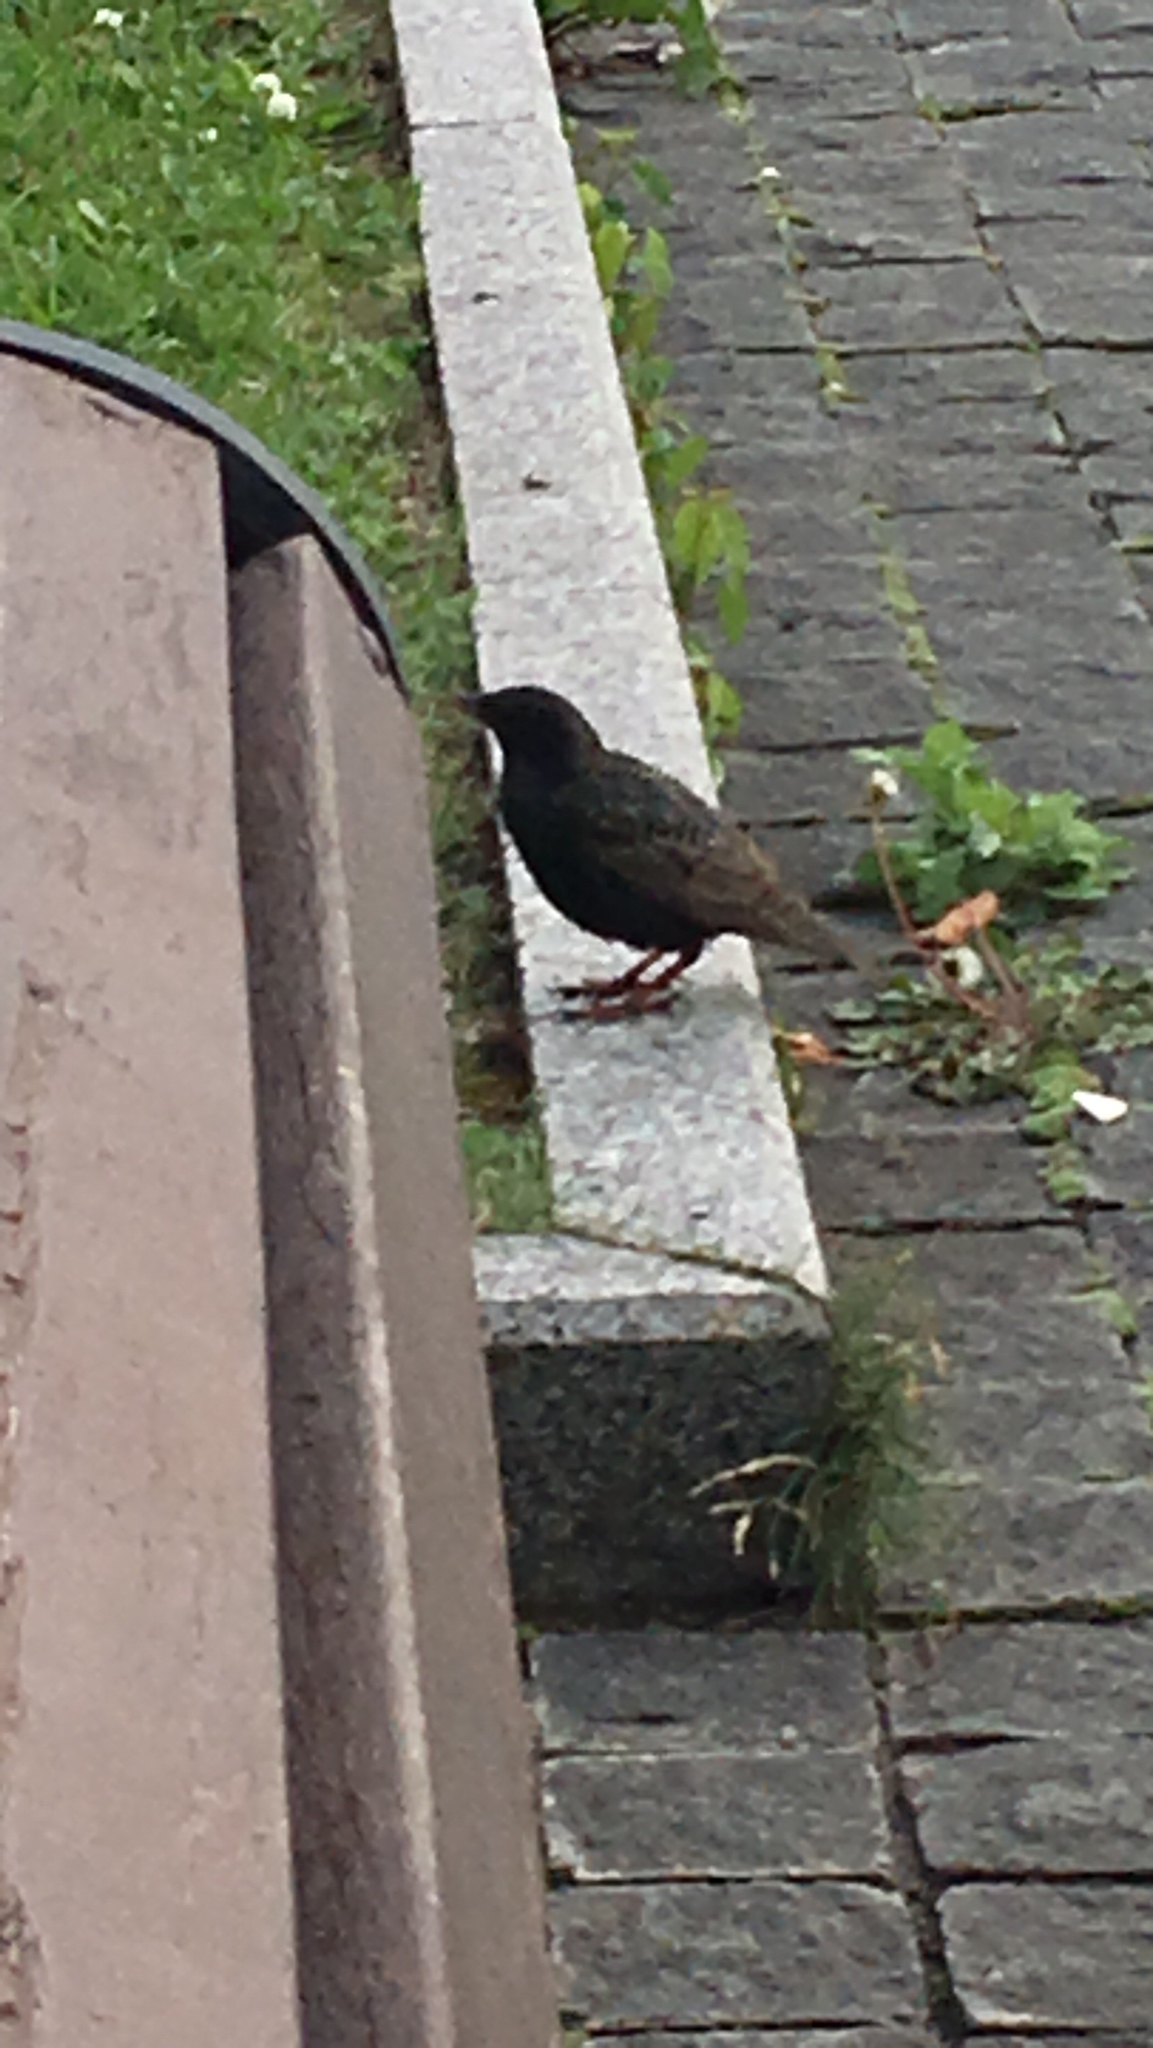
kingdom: Animalia
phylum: Chordata
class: Aves
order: Passeriformes
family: Sturnidae
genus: Sturnus
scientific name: Sturnus vulgaris
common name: Common starling
